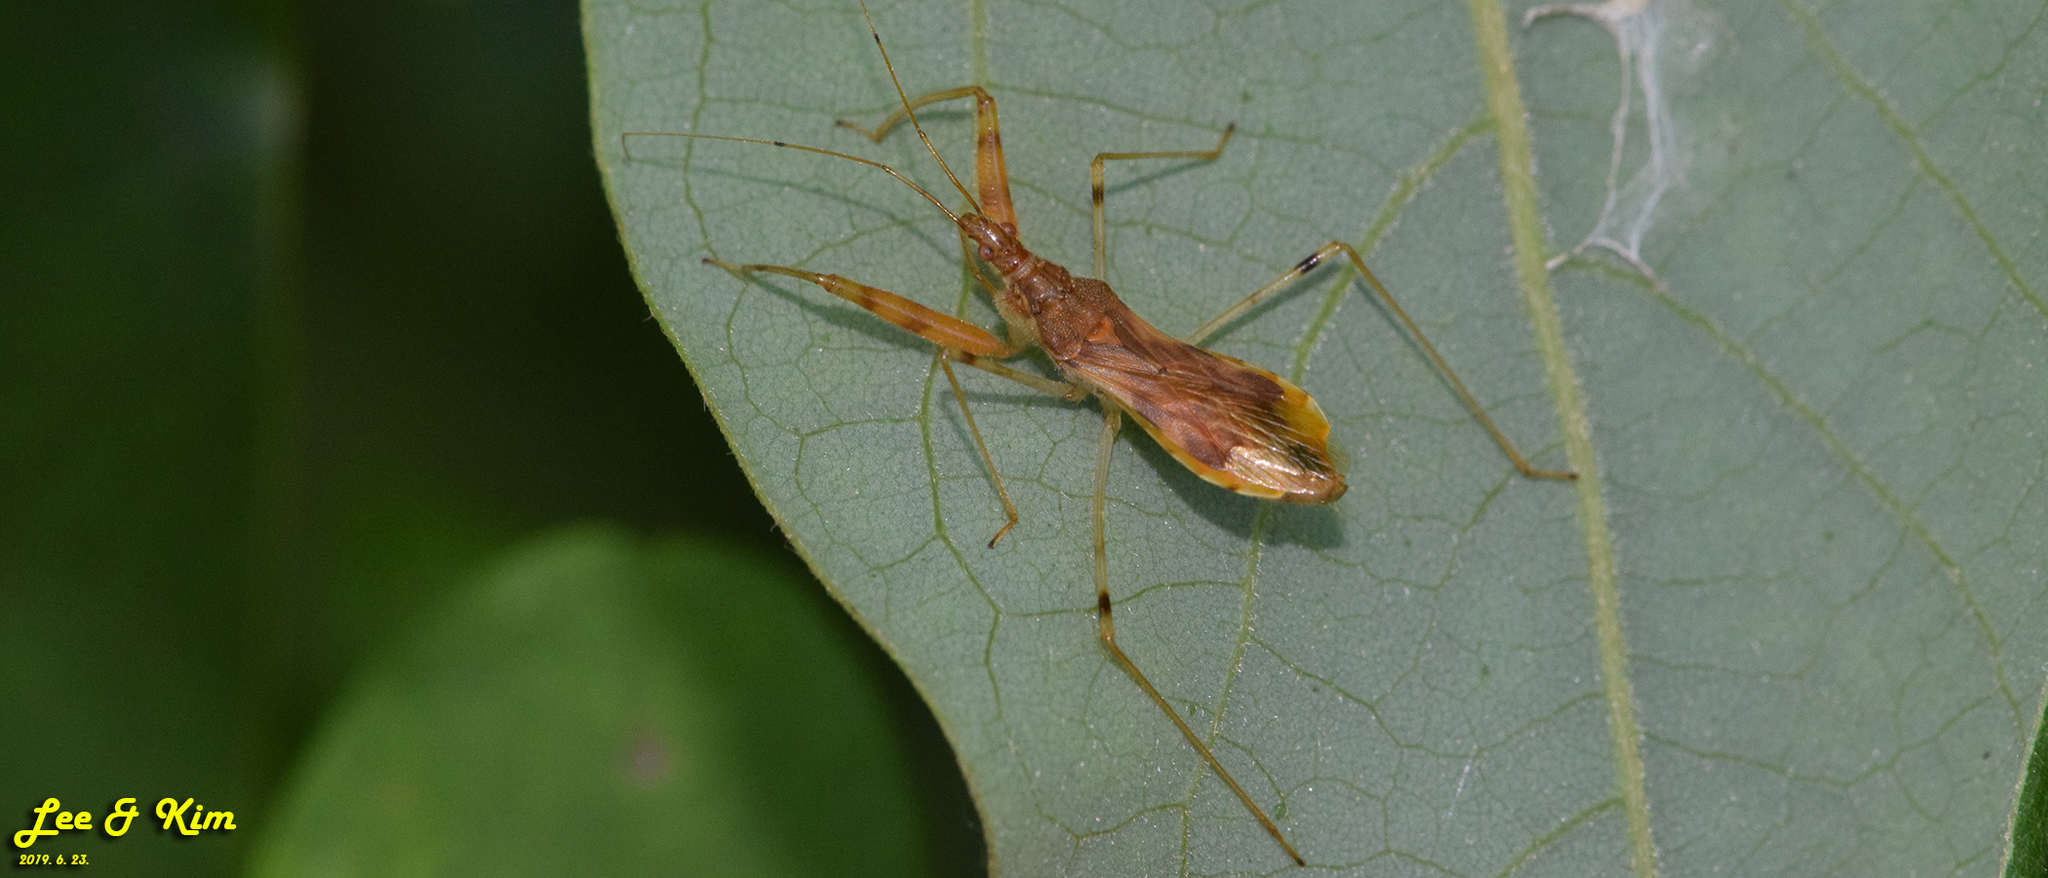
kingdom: Animalia
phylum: Arthropoda
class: Insecta
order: Hemiptera
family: Nabidae
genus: Gorpis
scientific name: Gorpis
